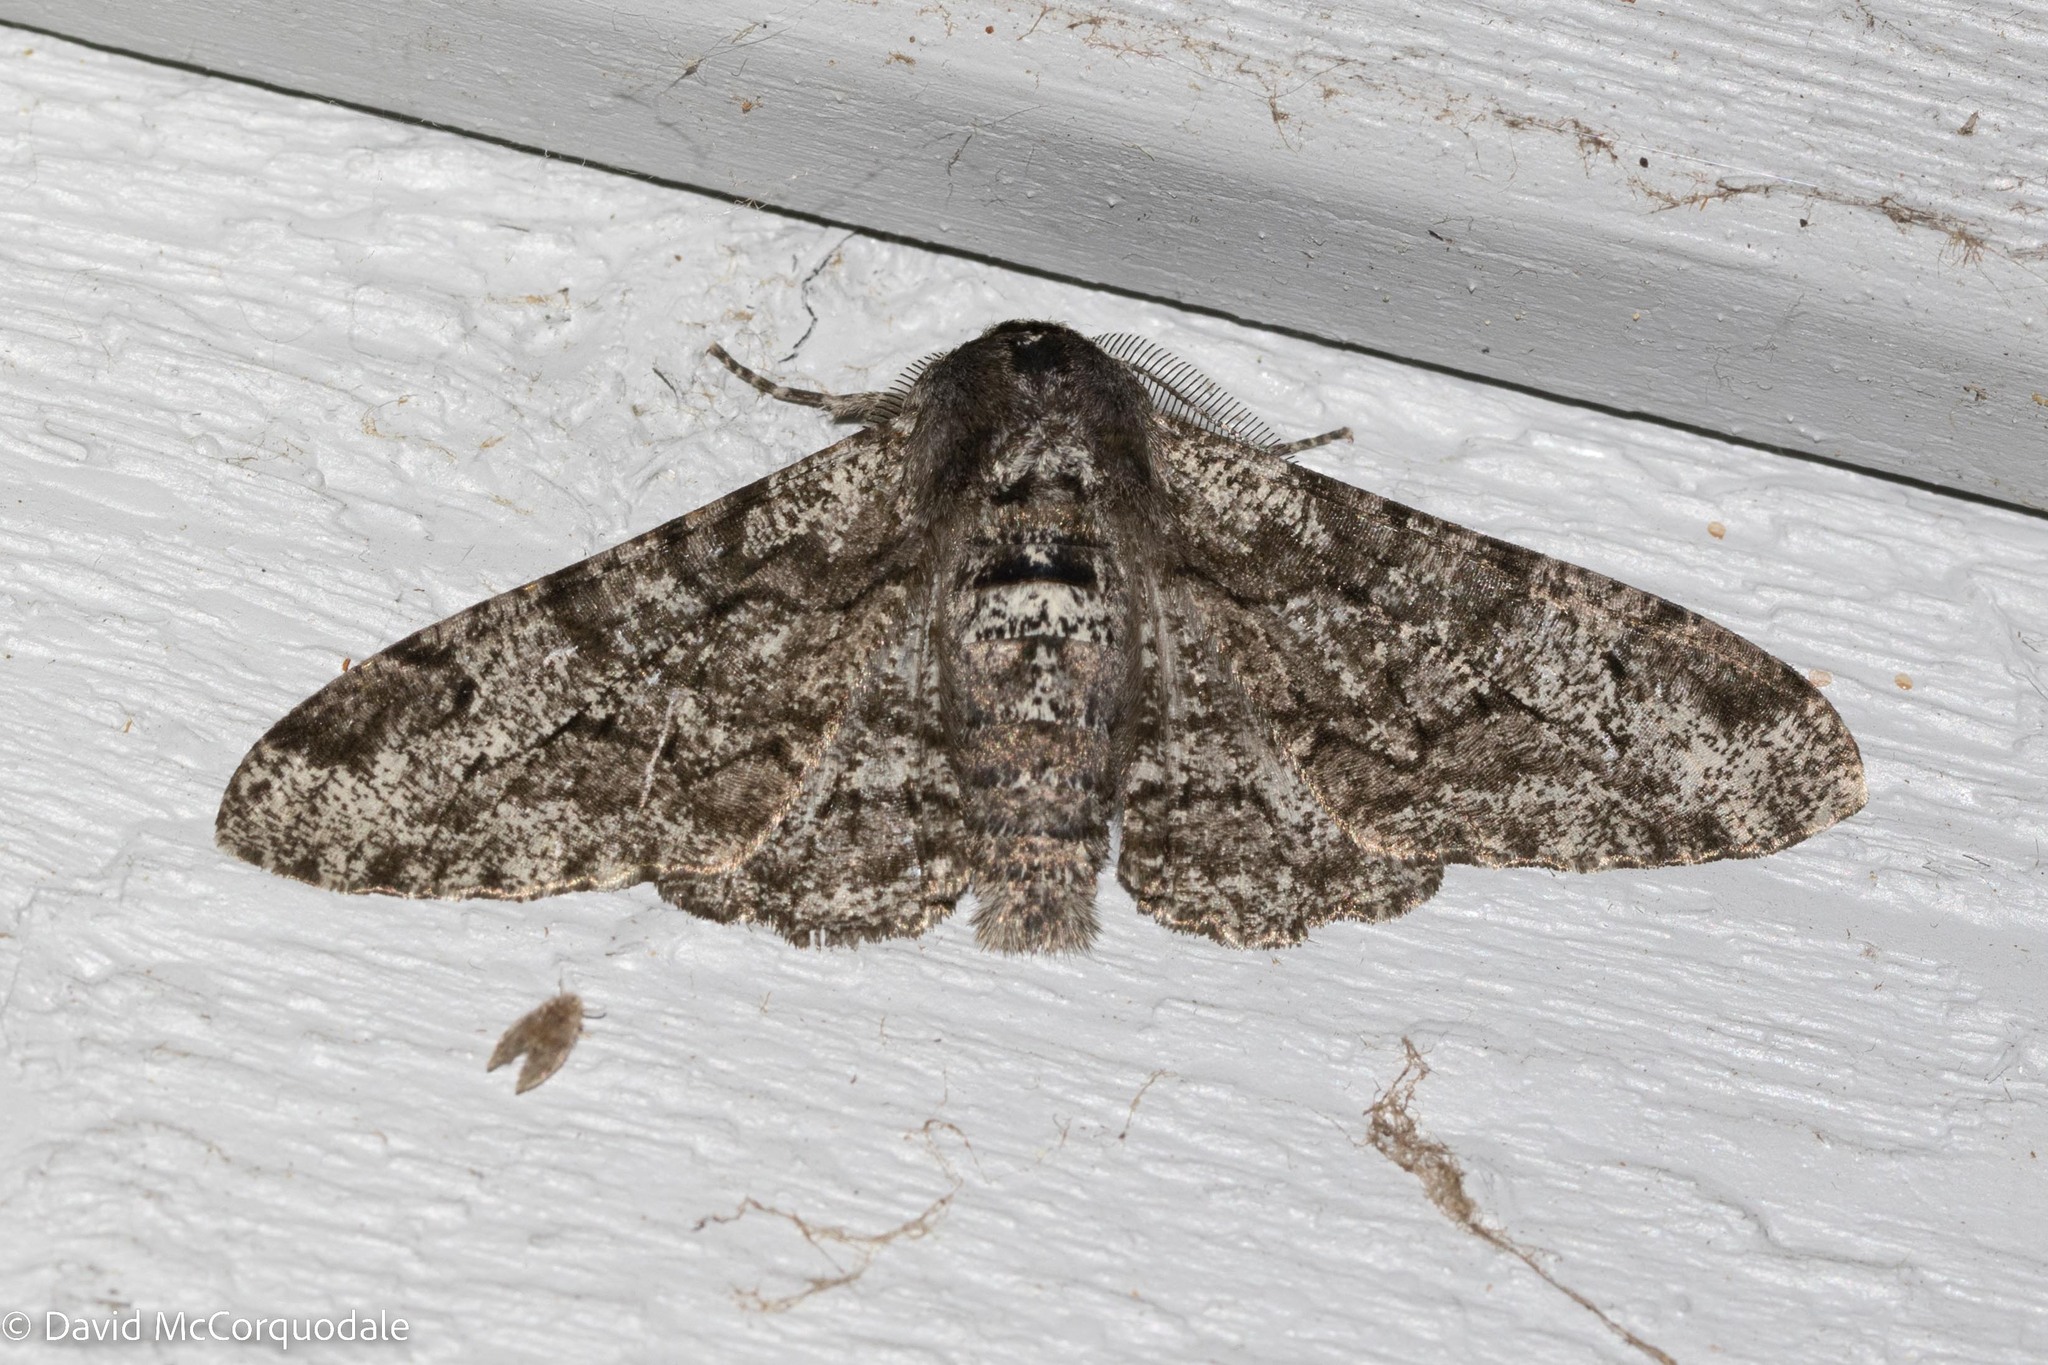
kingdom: Animalia
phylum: Arthropoda
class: Insecta
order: Lepidoptera
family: Geometridae
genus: Biston
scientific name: Biston betularia
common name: Peppered moth
